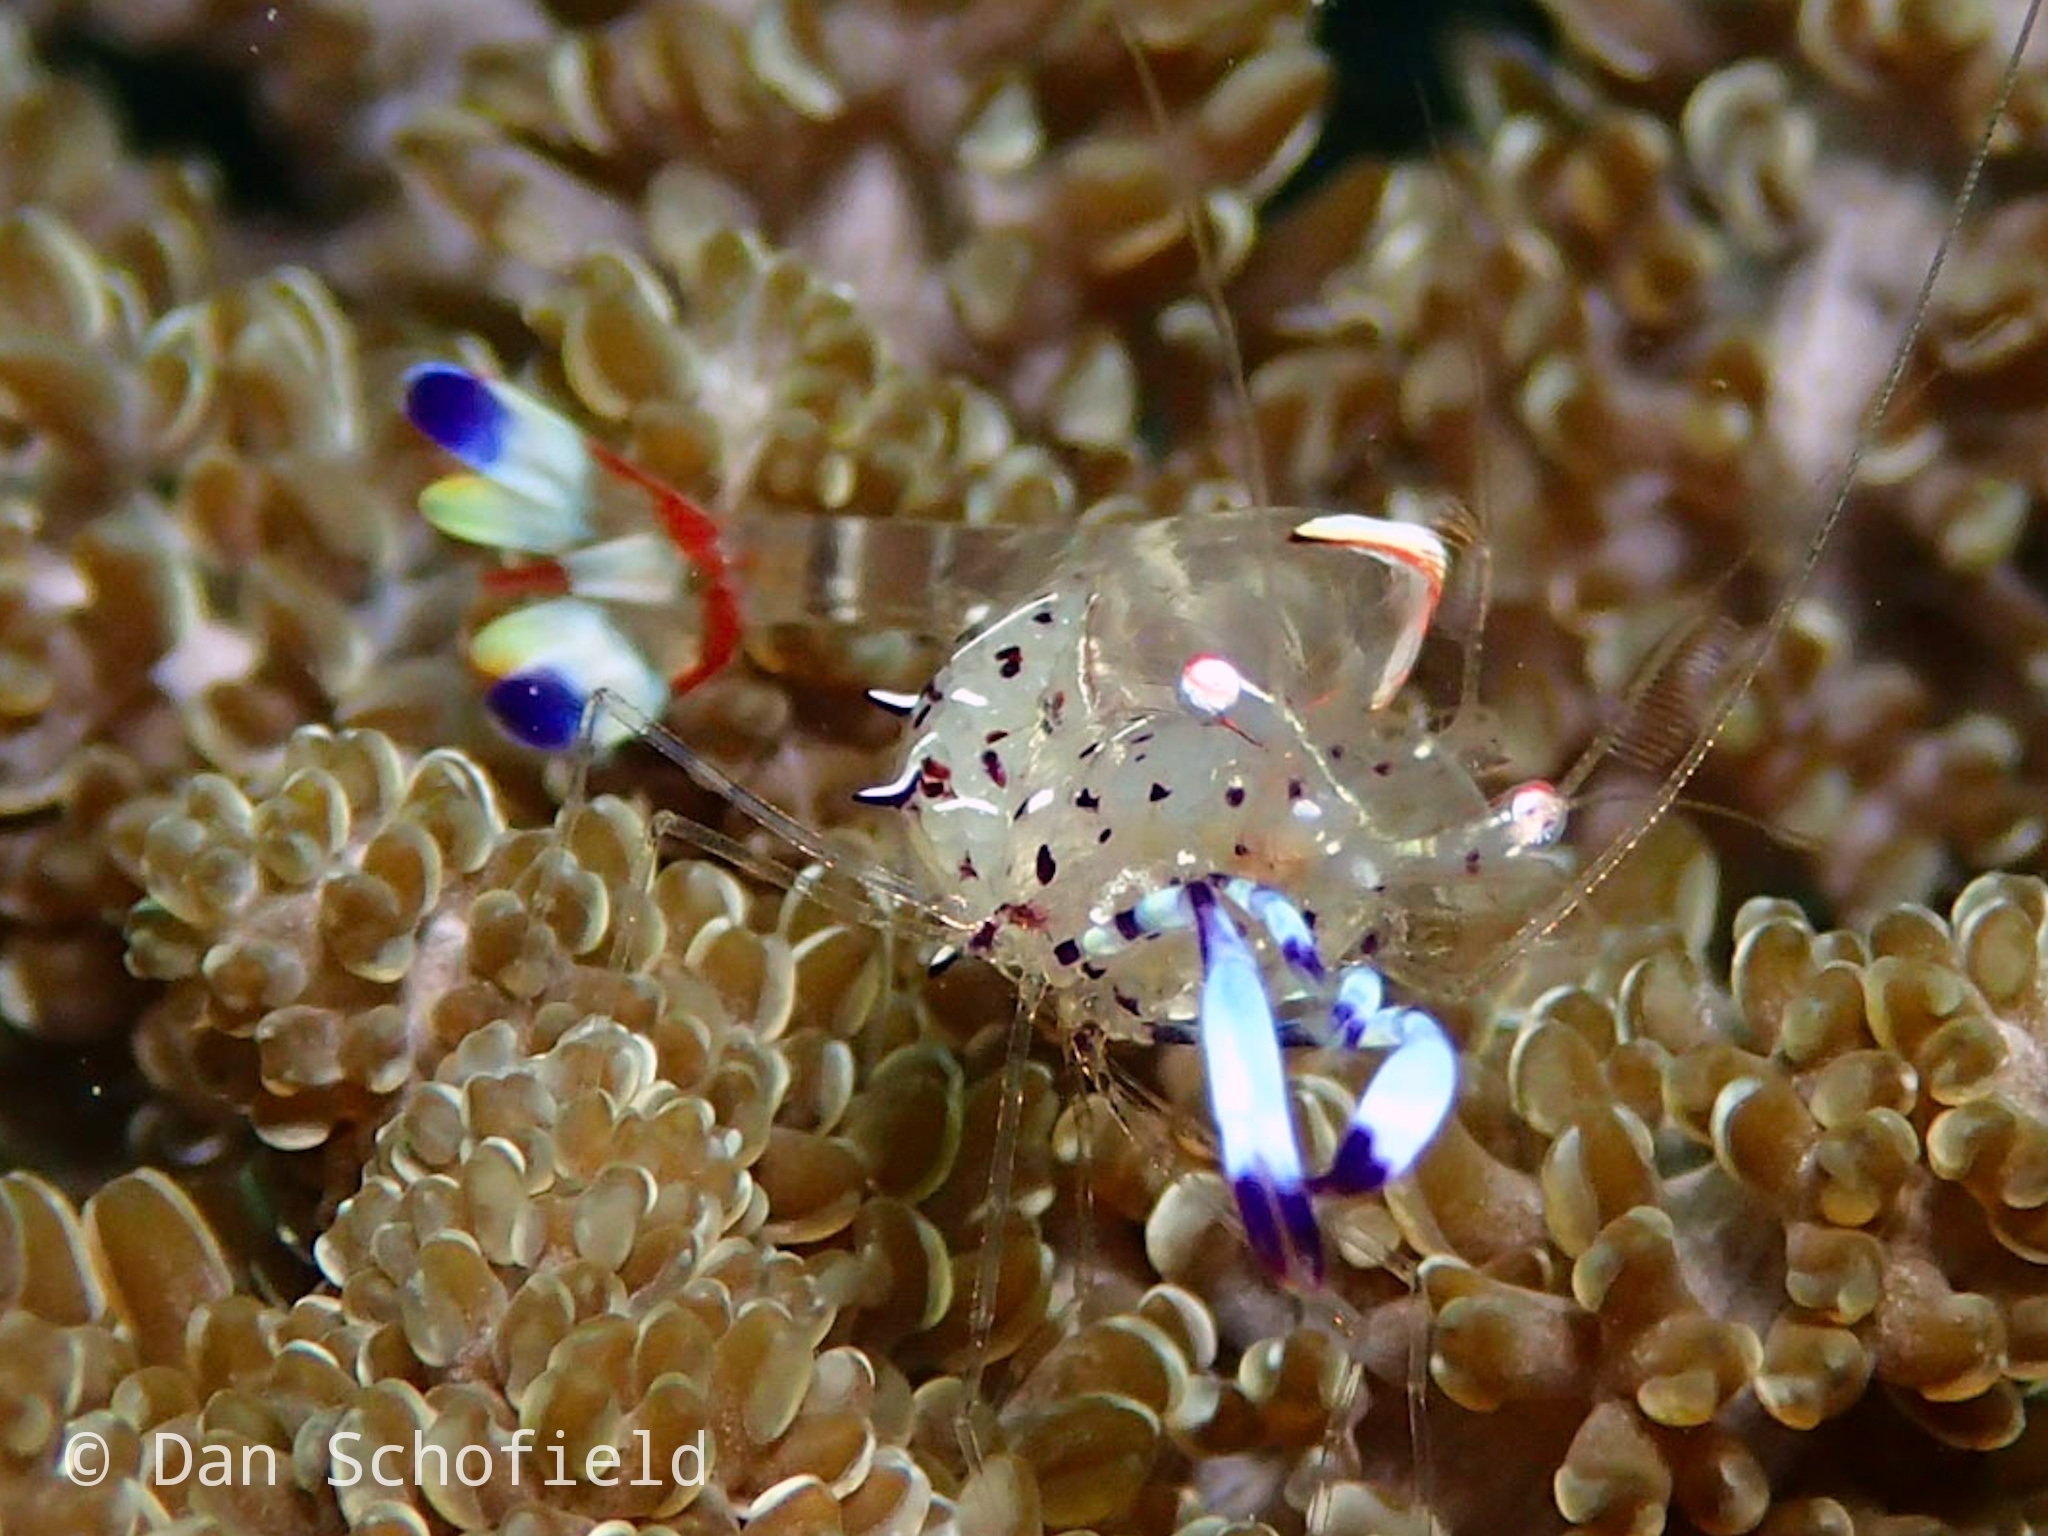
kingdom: Animalia
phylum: Arthropoda
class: Malacostraca
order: Decapoda
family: Palaemonidae
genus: Ancylomenes
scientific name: Ancylomenes holthuisi
